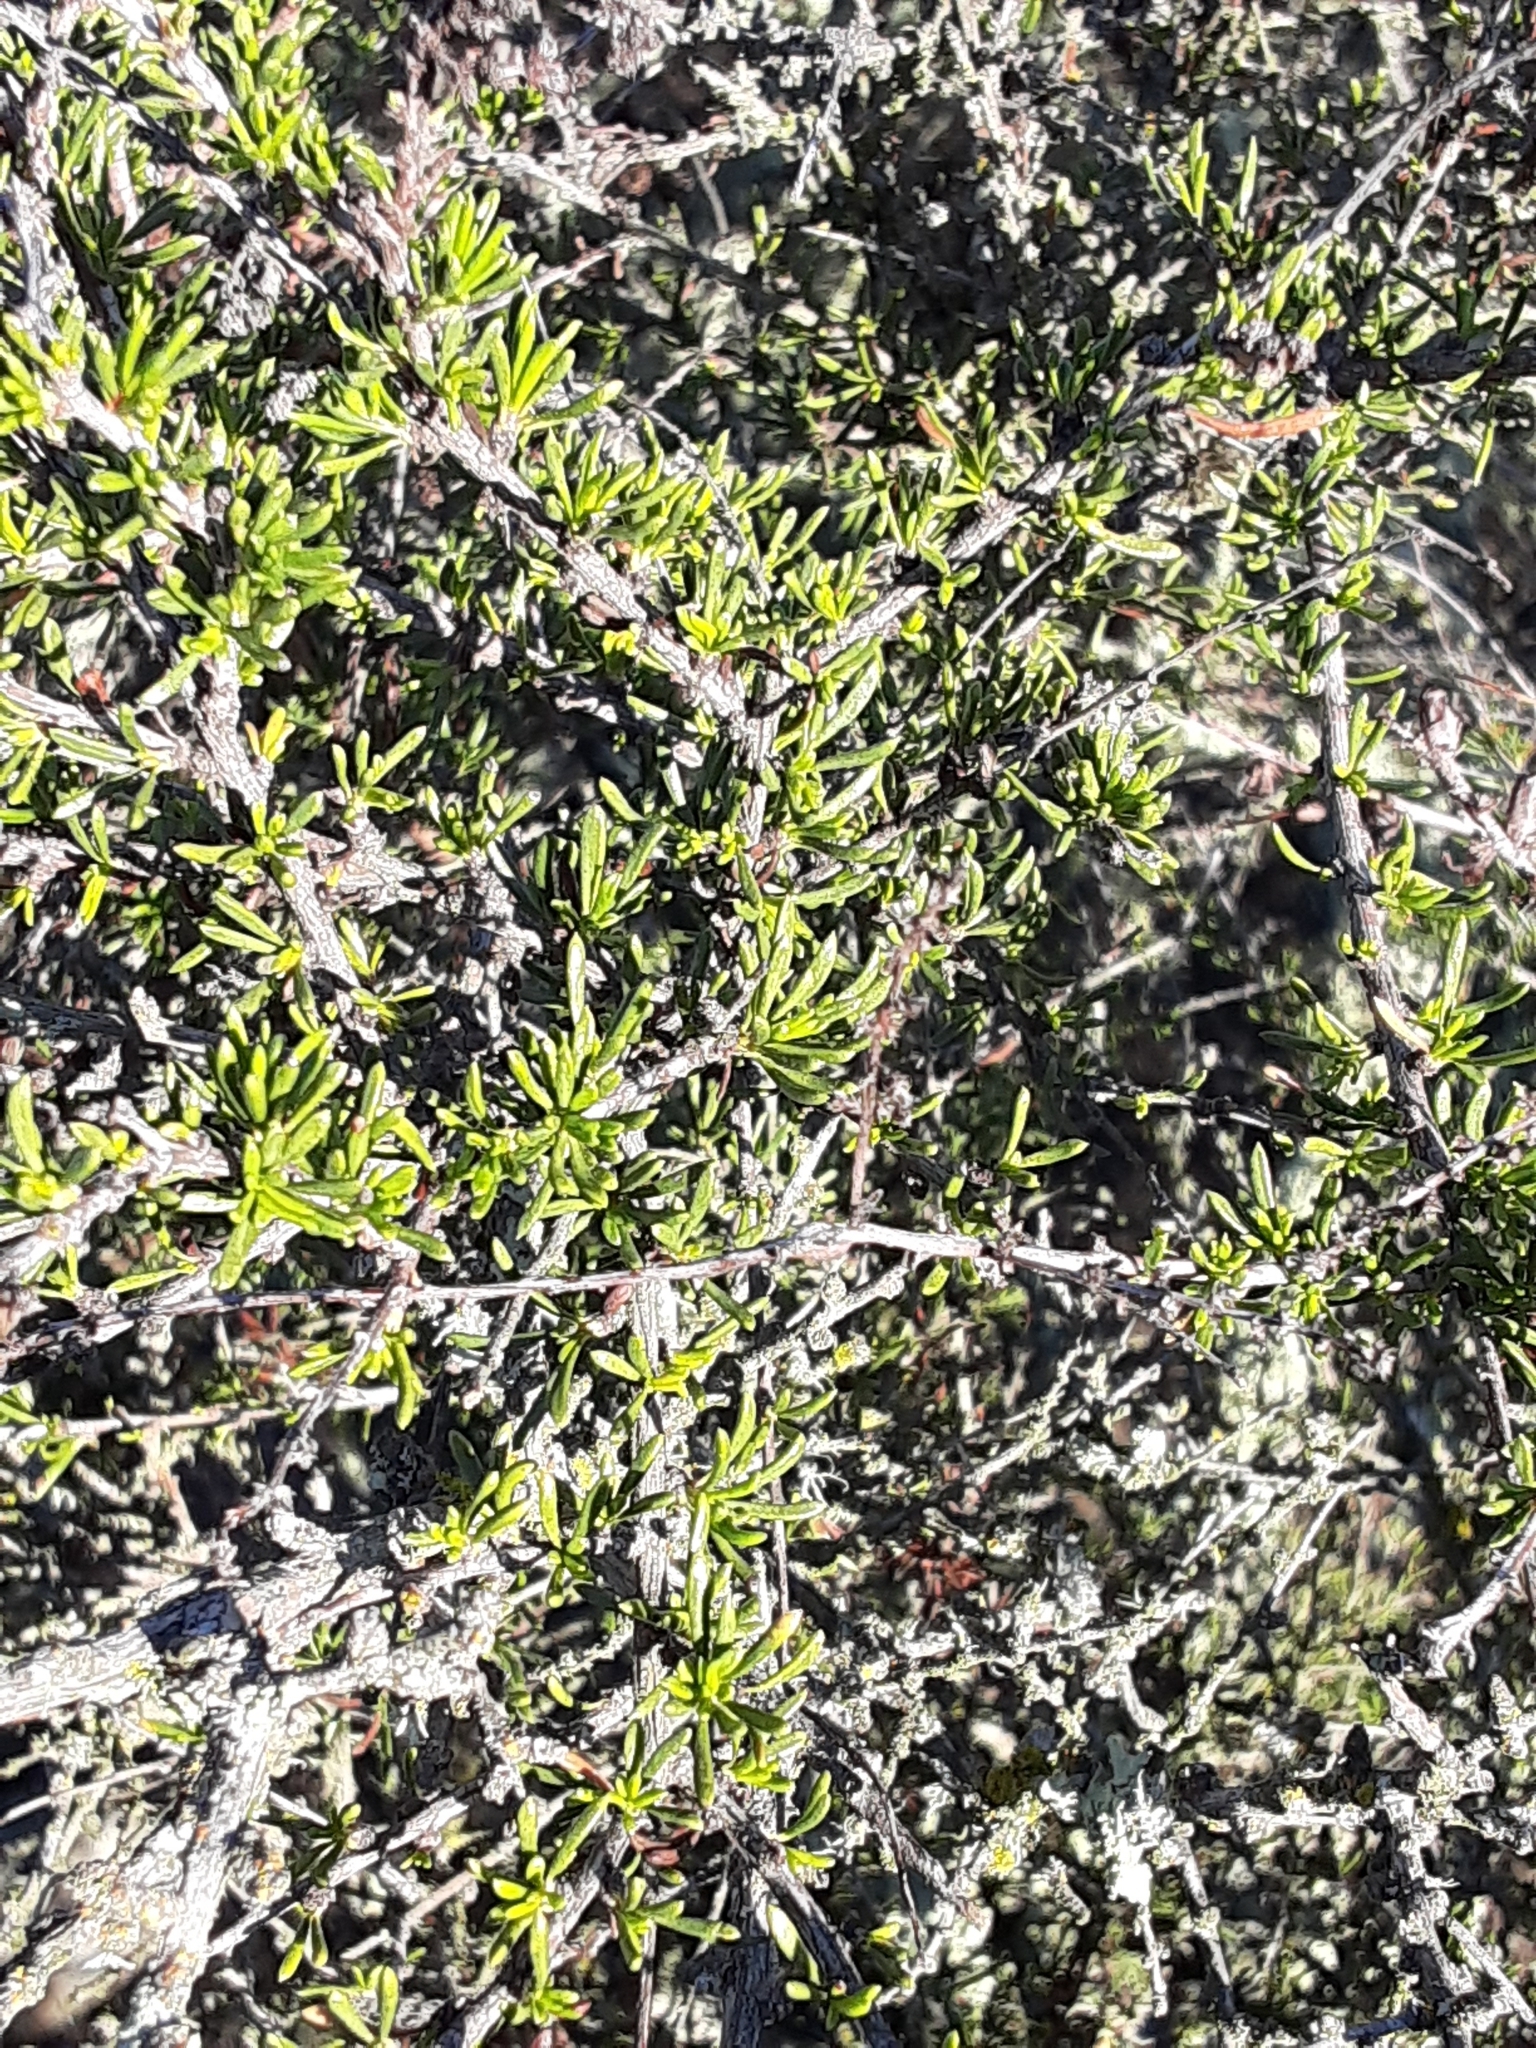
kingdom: Plantae
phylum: Tracheophyta
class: Magnoliopsida
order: Rosales
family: Rosaceae
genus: Adenostoma
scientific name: Adenostoma fasciculatum
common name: Chamise
